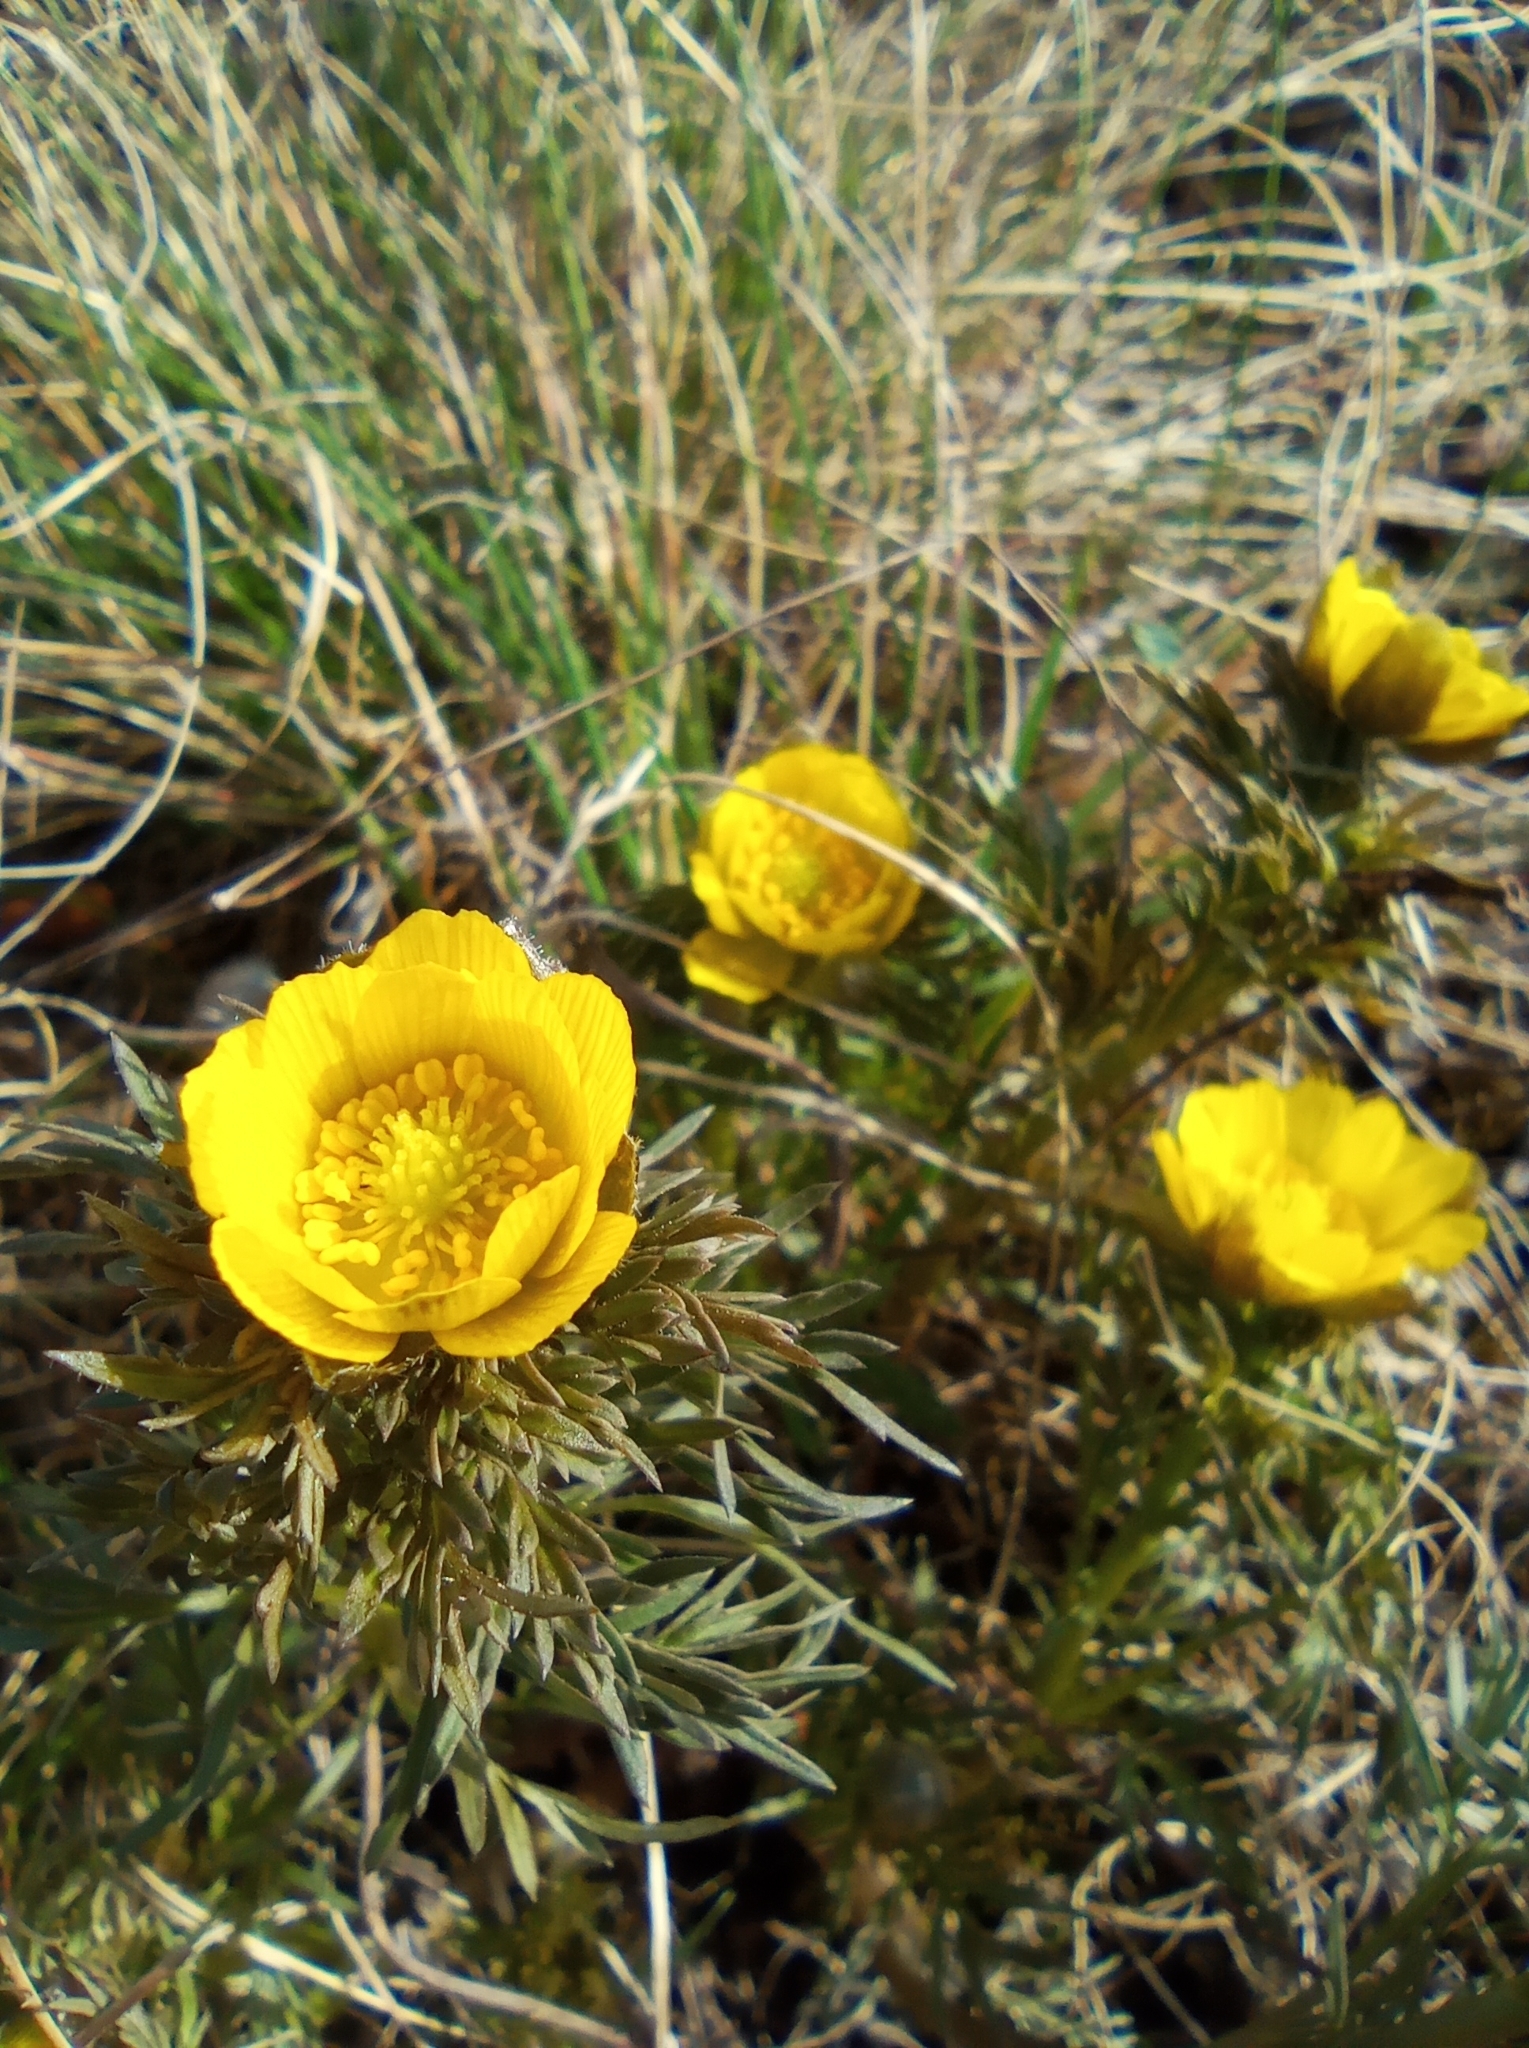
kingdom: Plantae
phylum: Tracheophyta
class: Magnoliopsida
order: Ranunculales
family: Ranunculaceae
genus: Adonis
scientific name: Adonis volgensis
